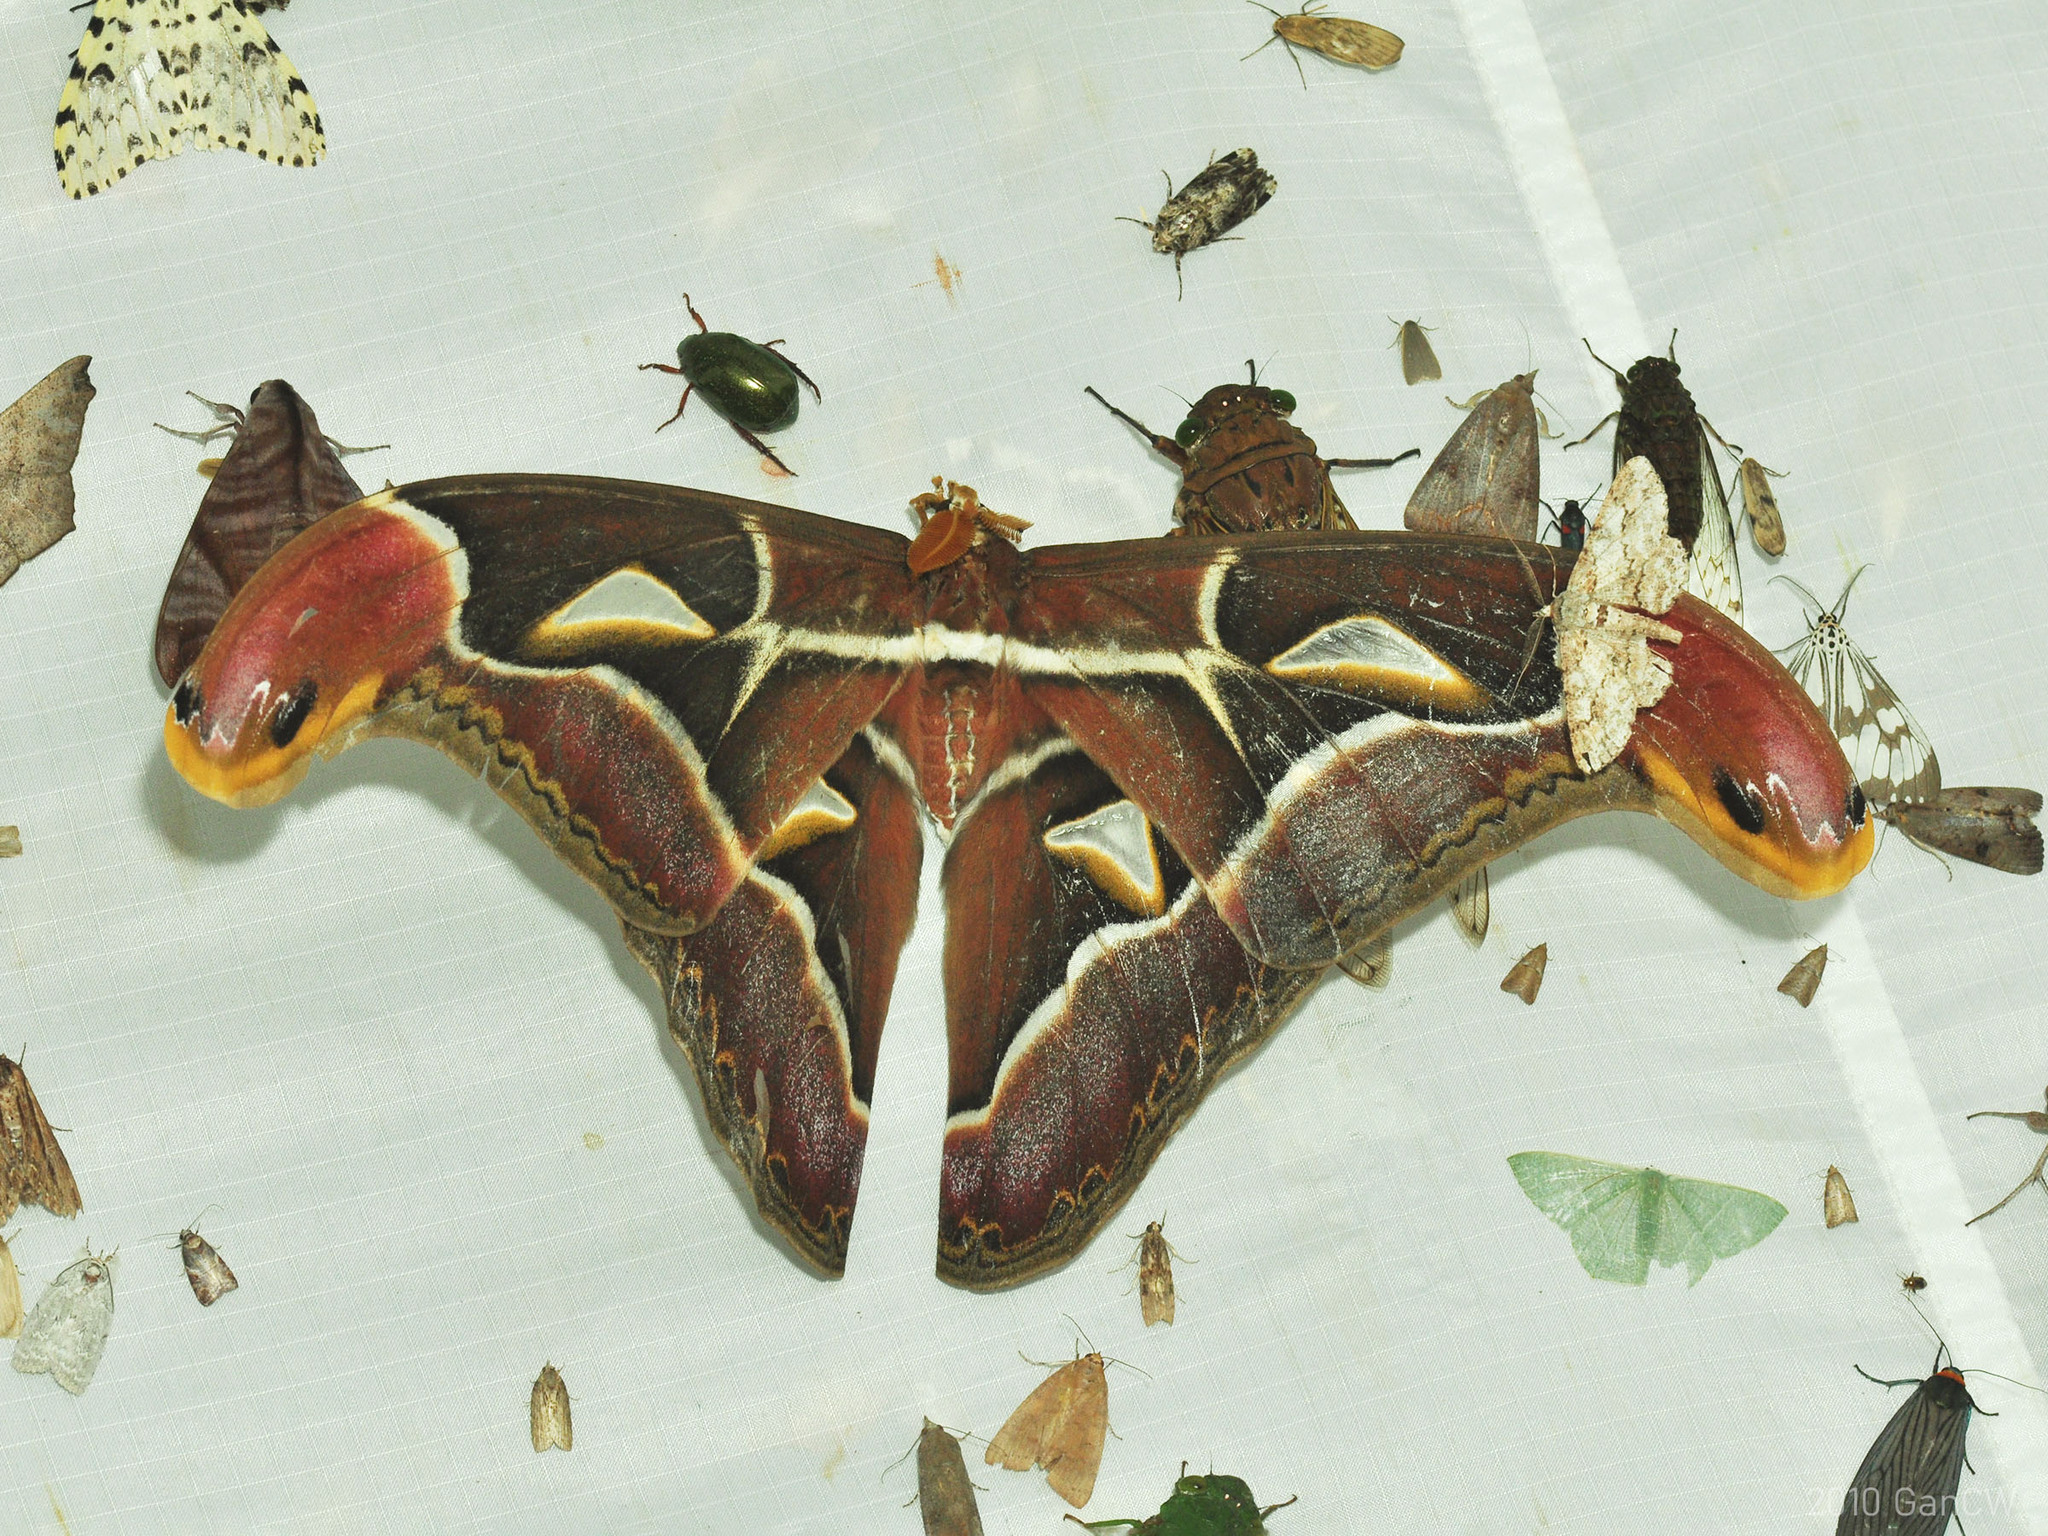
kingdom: Animalia
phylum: Arthropoda
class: Insecta
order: Lepidoptera
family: Saturniidae
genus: Archaeoattacus
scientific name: Archaeoattacus edwardsii
